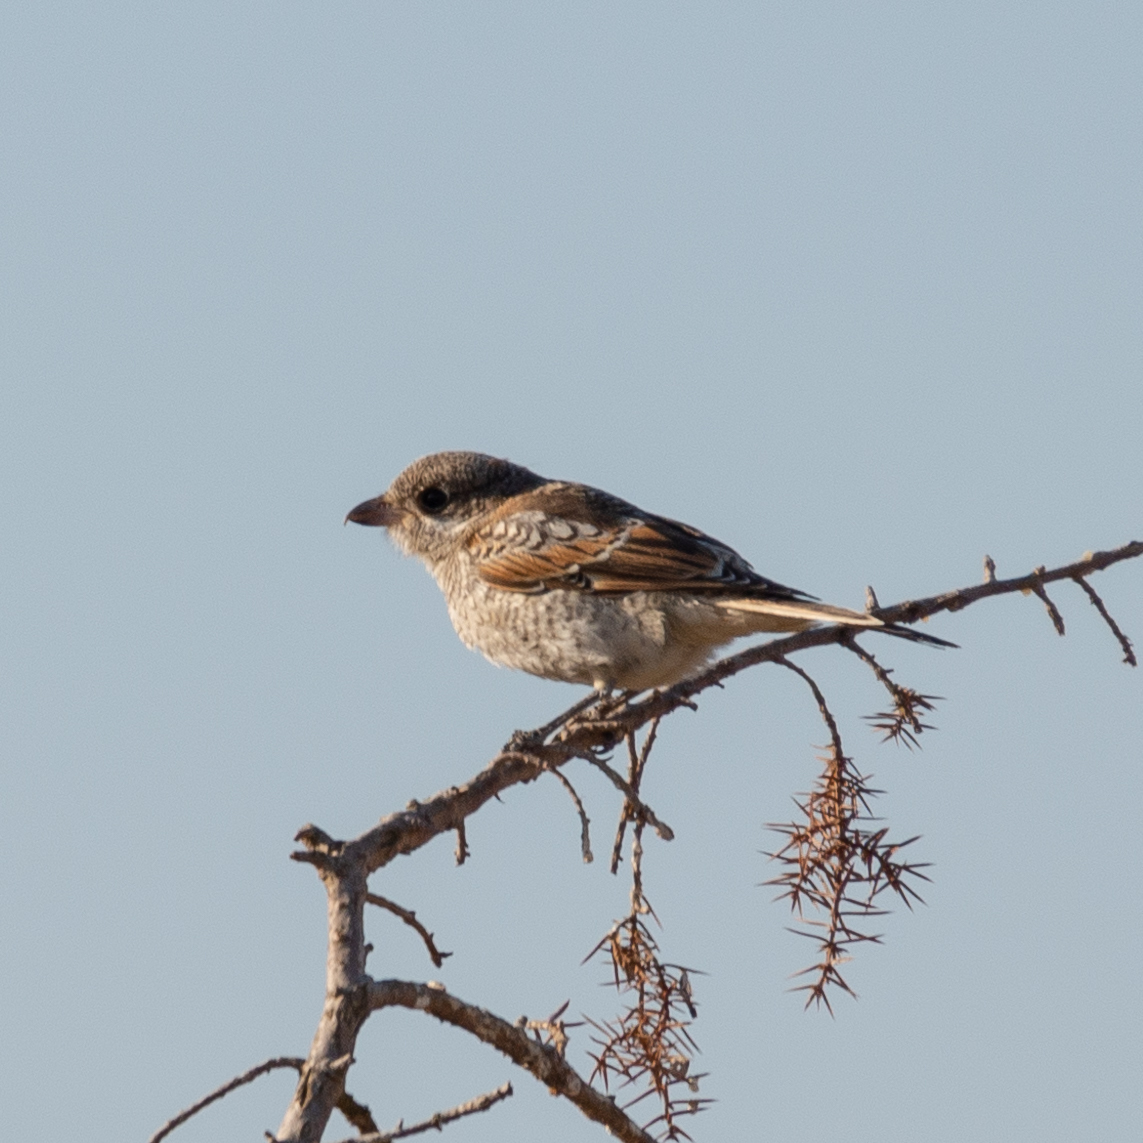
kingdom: Animalia
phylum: Chordata
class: Aves
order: Passeriformes
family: Laniidae
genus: Lanius
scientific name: Lanius senator
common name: Woodchat shrike
